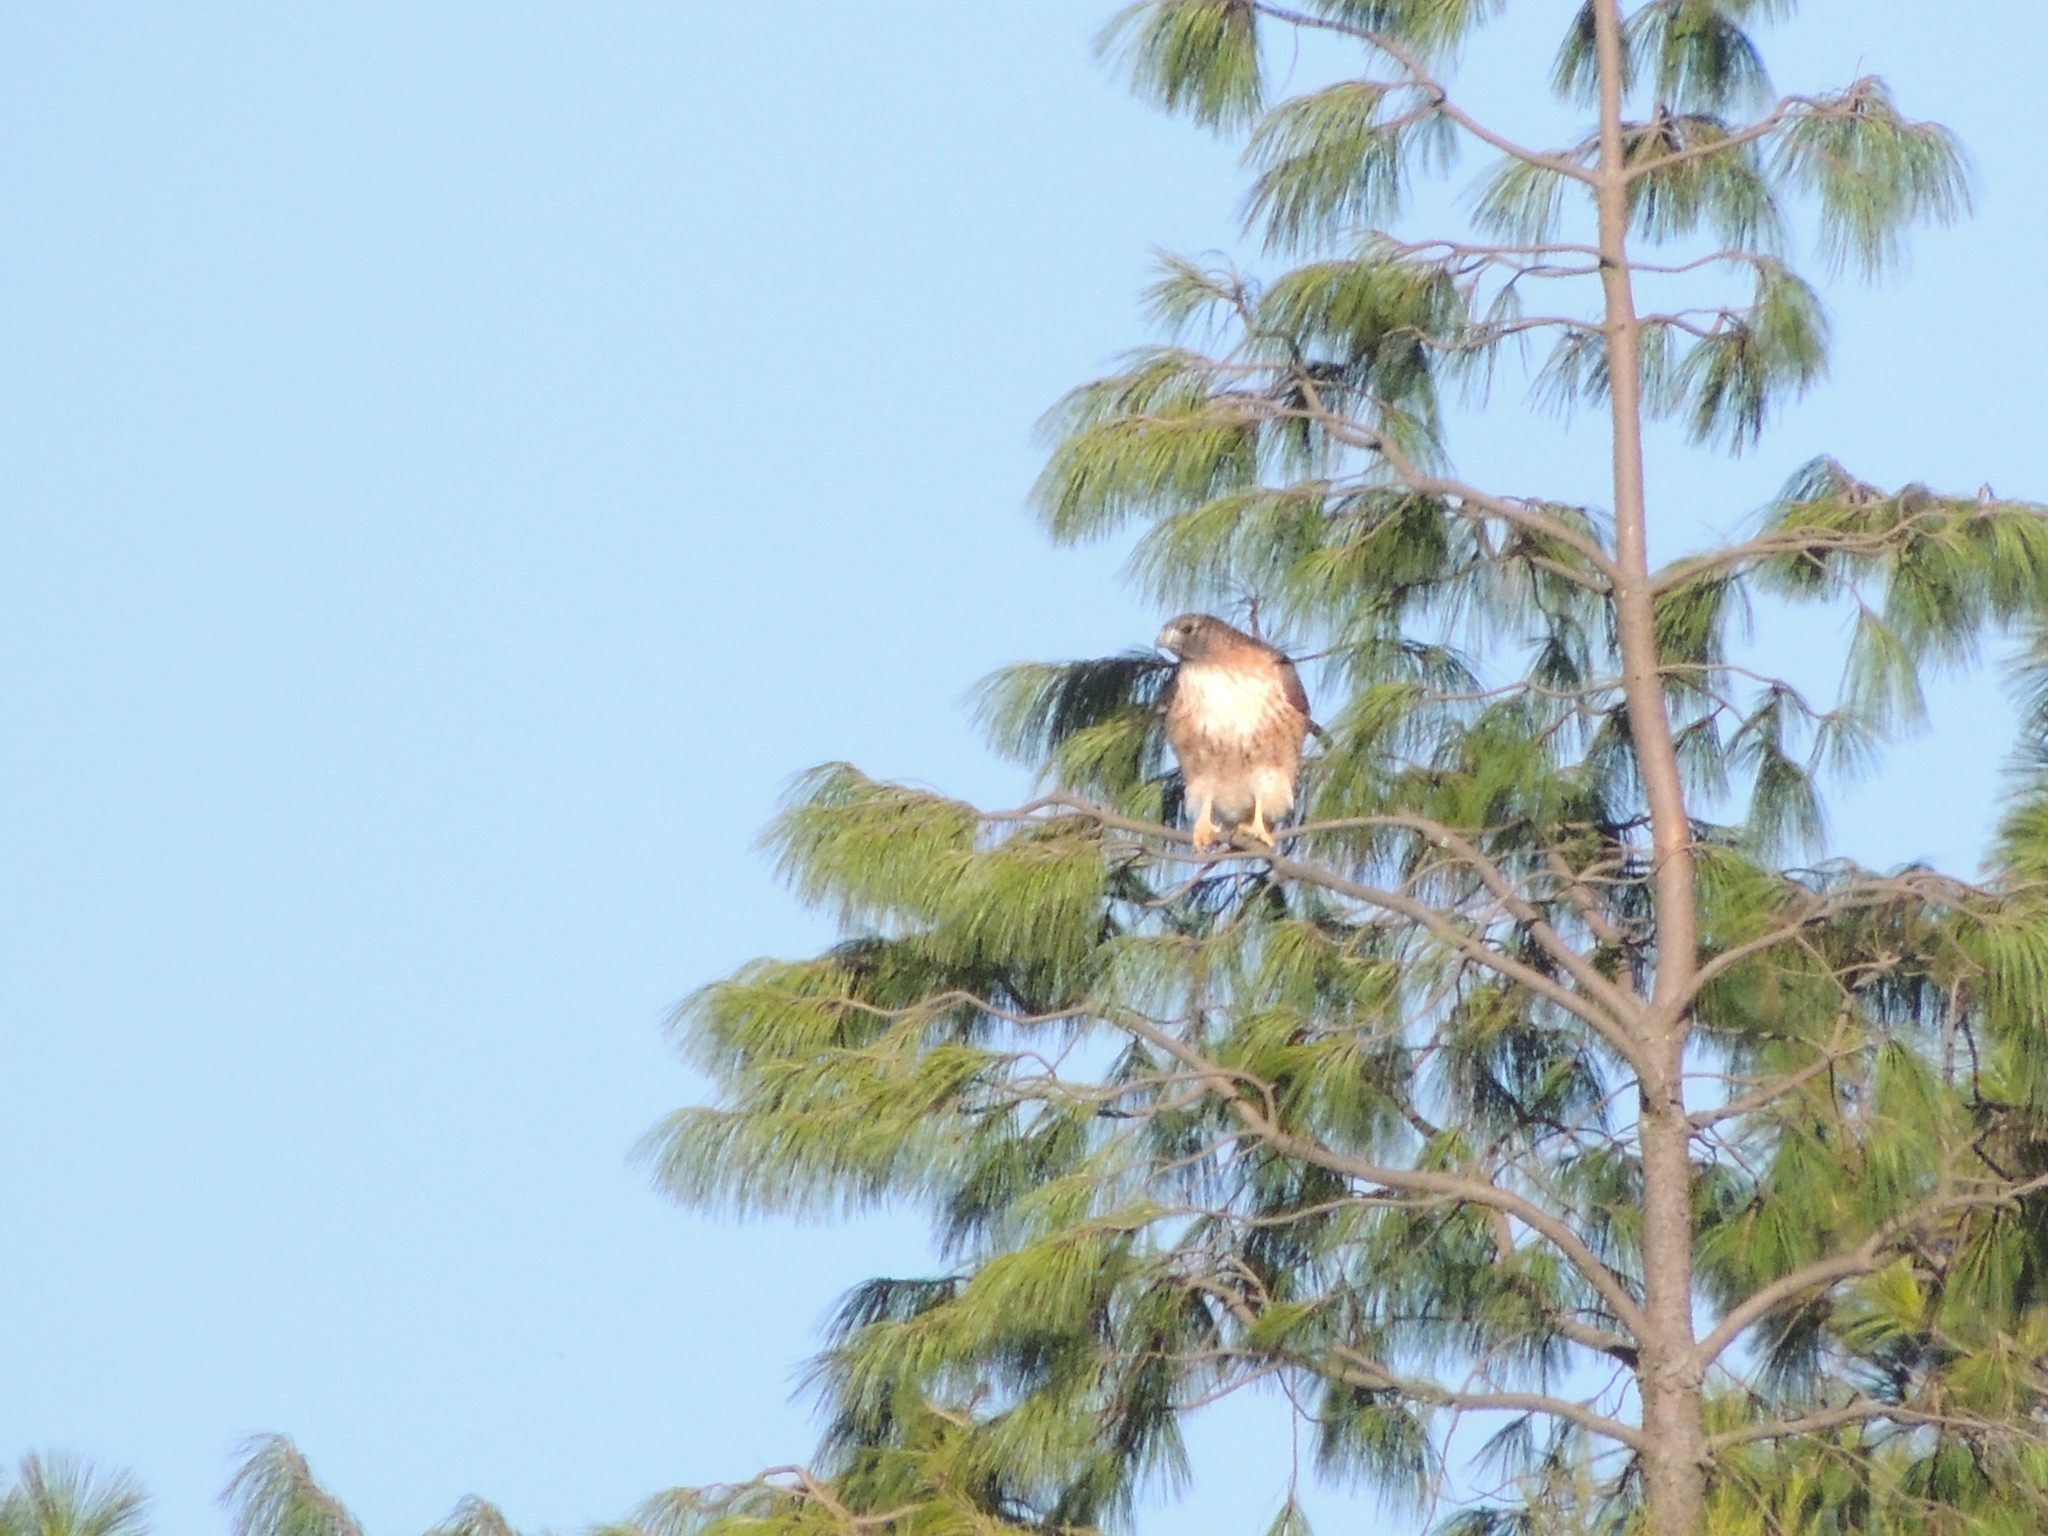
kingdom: Animalia
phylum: Chordata
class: Aves
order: Accipitriformes
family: Accipitridae
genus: Buteo
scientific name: Buteo jamaicensis
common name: Red-tailed hawk
